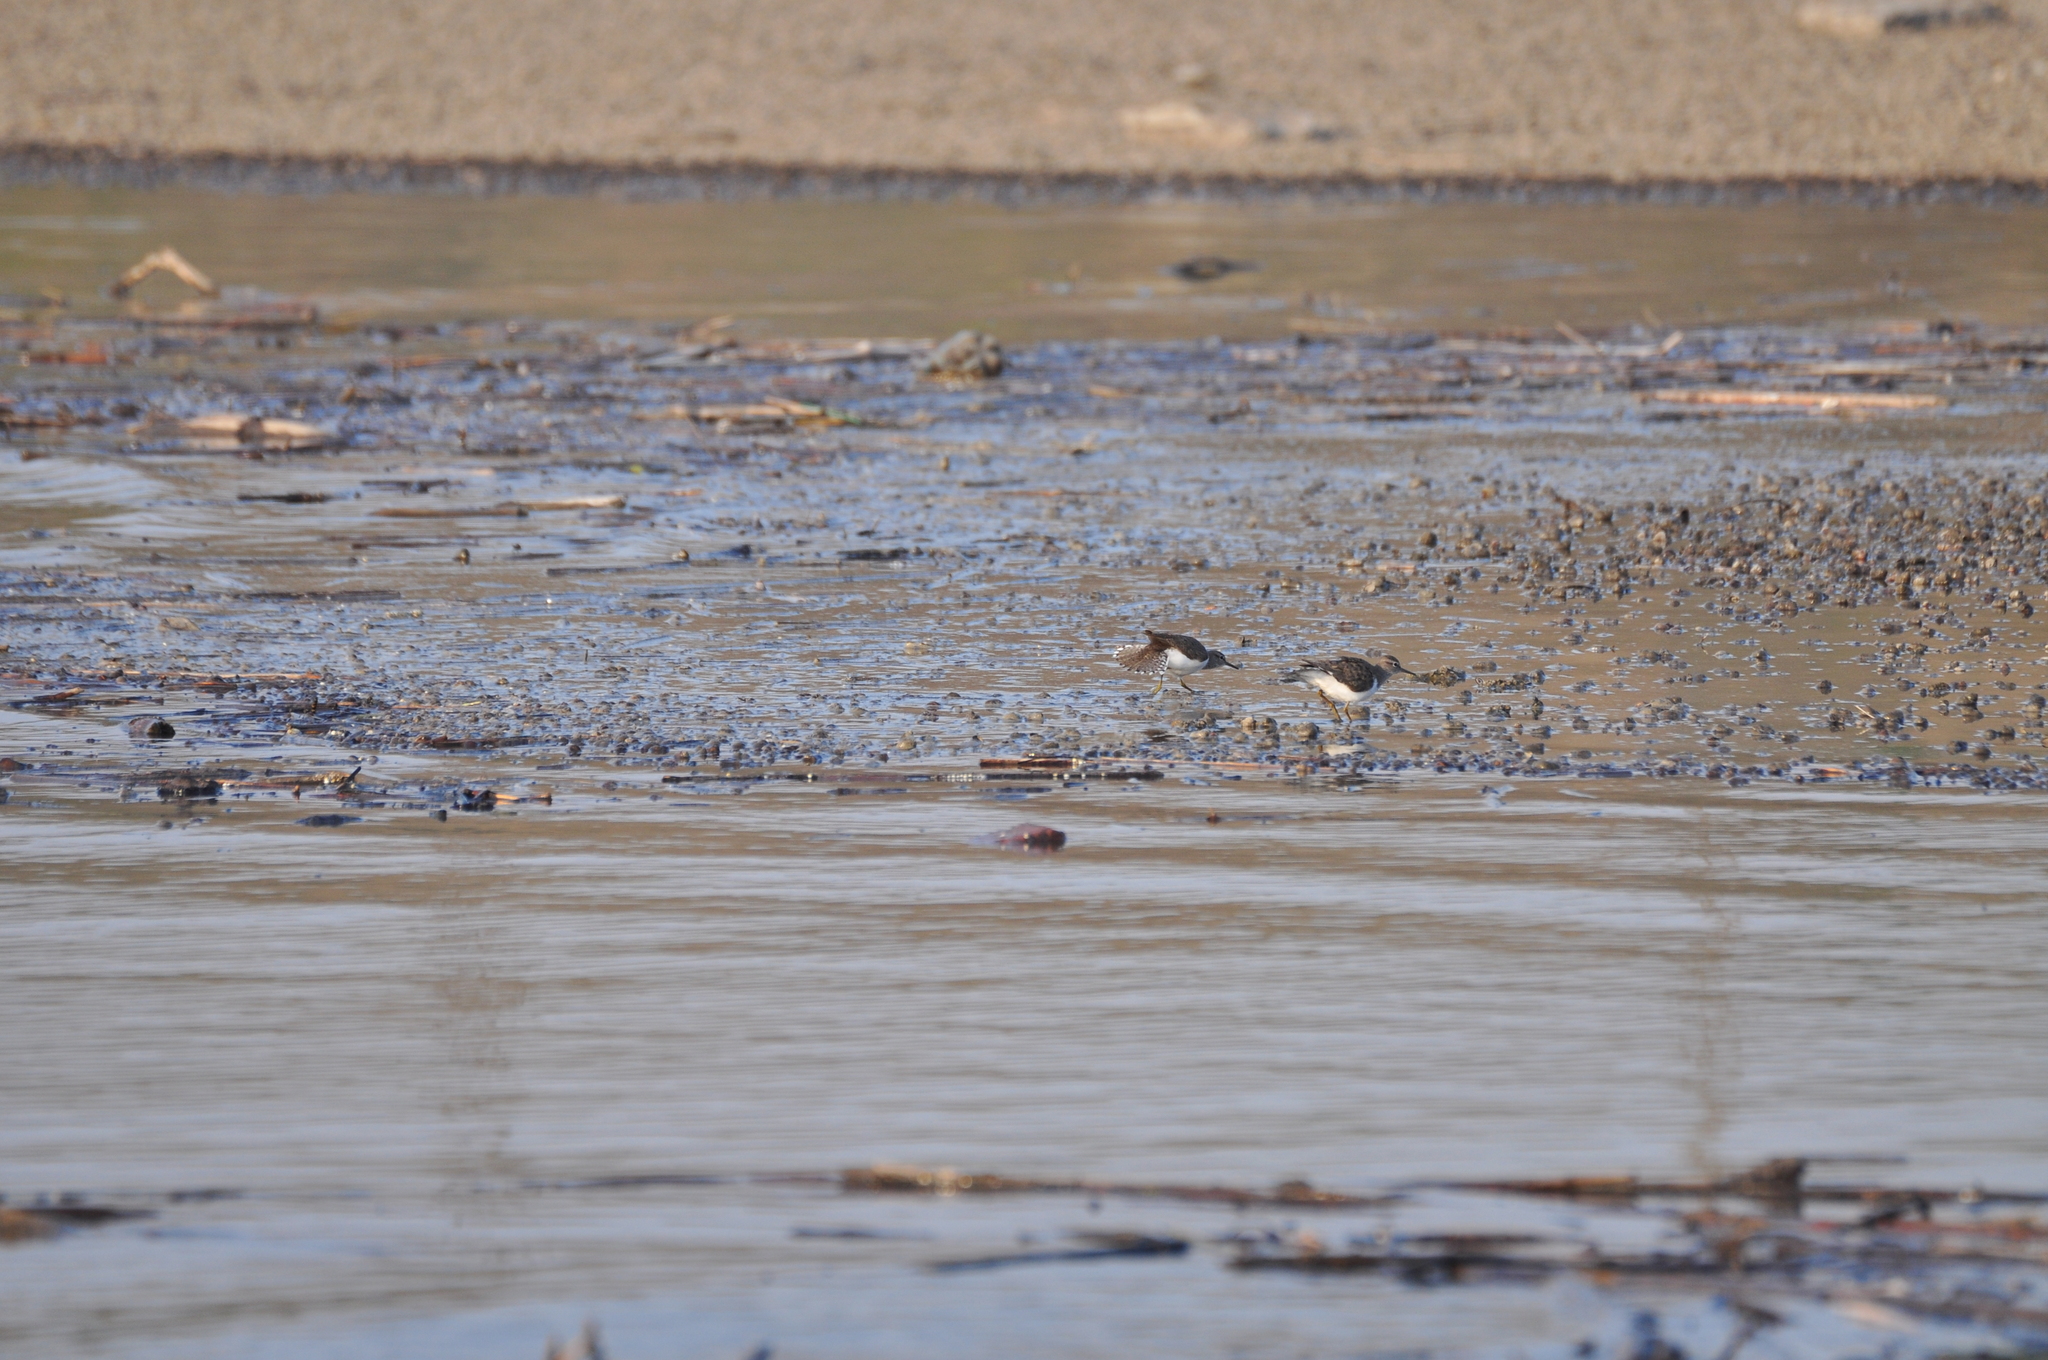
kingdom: Animalia
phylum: Chordata
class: Aves
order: Charadriiformes
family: Scolopacidae
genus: Actitis
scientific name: Actitis hypoleucos
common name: Common sandpiper
